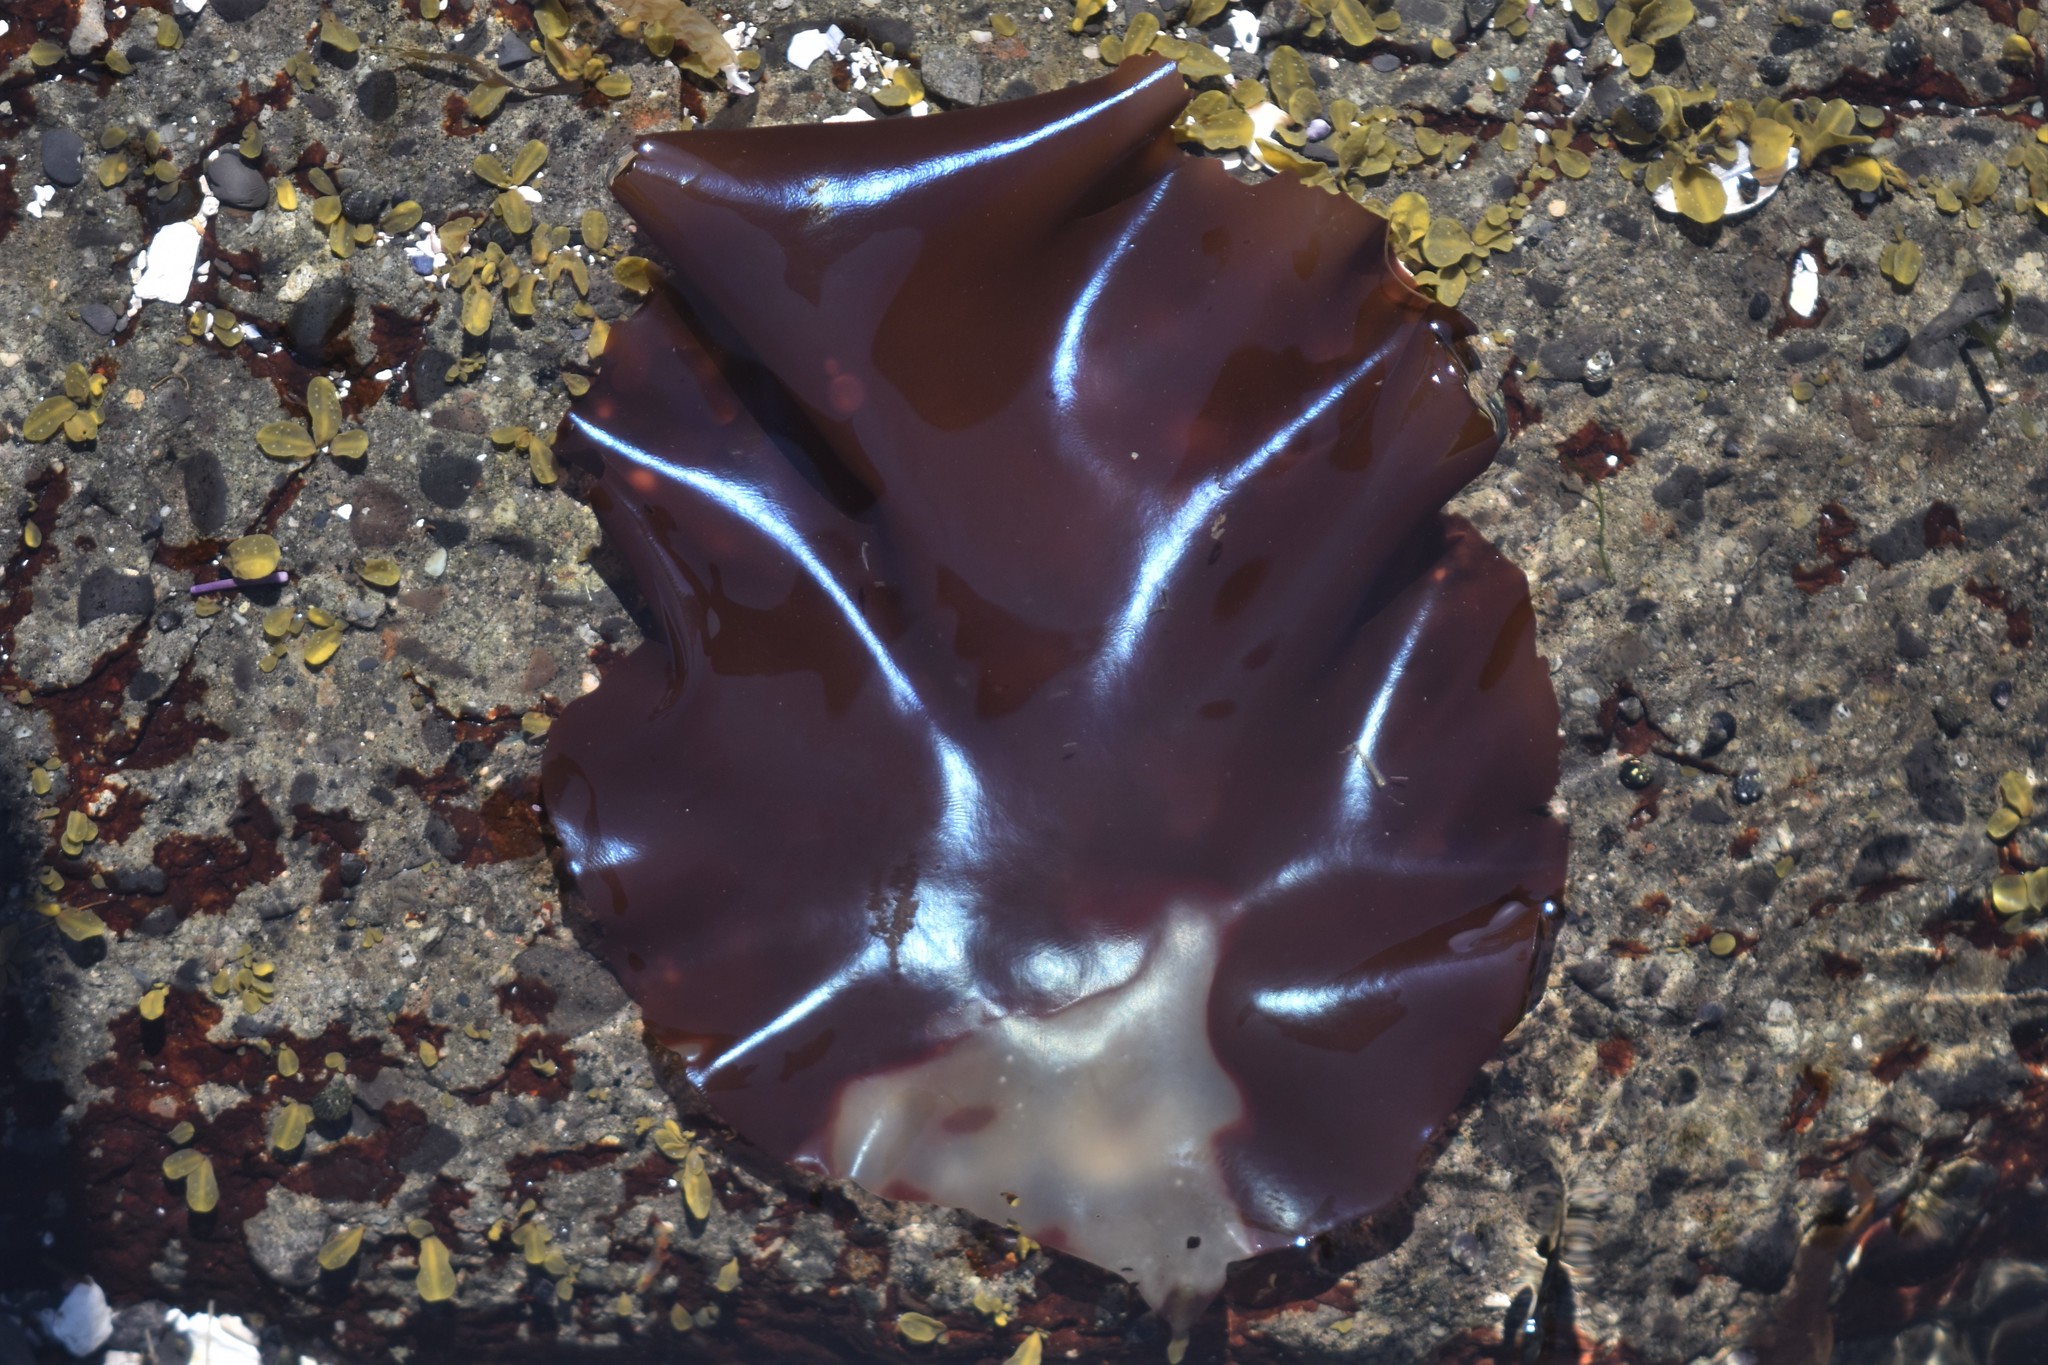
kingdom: Plantae
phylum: Rhodophyta
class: Florideophyceae
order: Gigartinales
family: Gigartinaceae
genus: Mazzaella
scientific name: Mazzaella splendens
